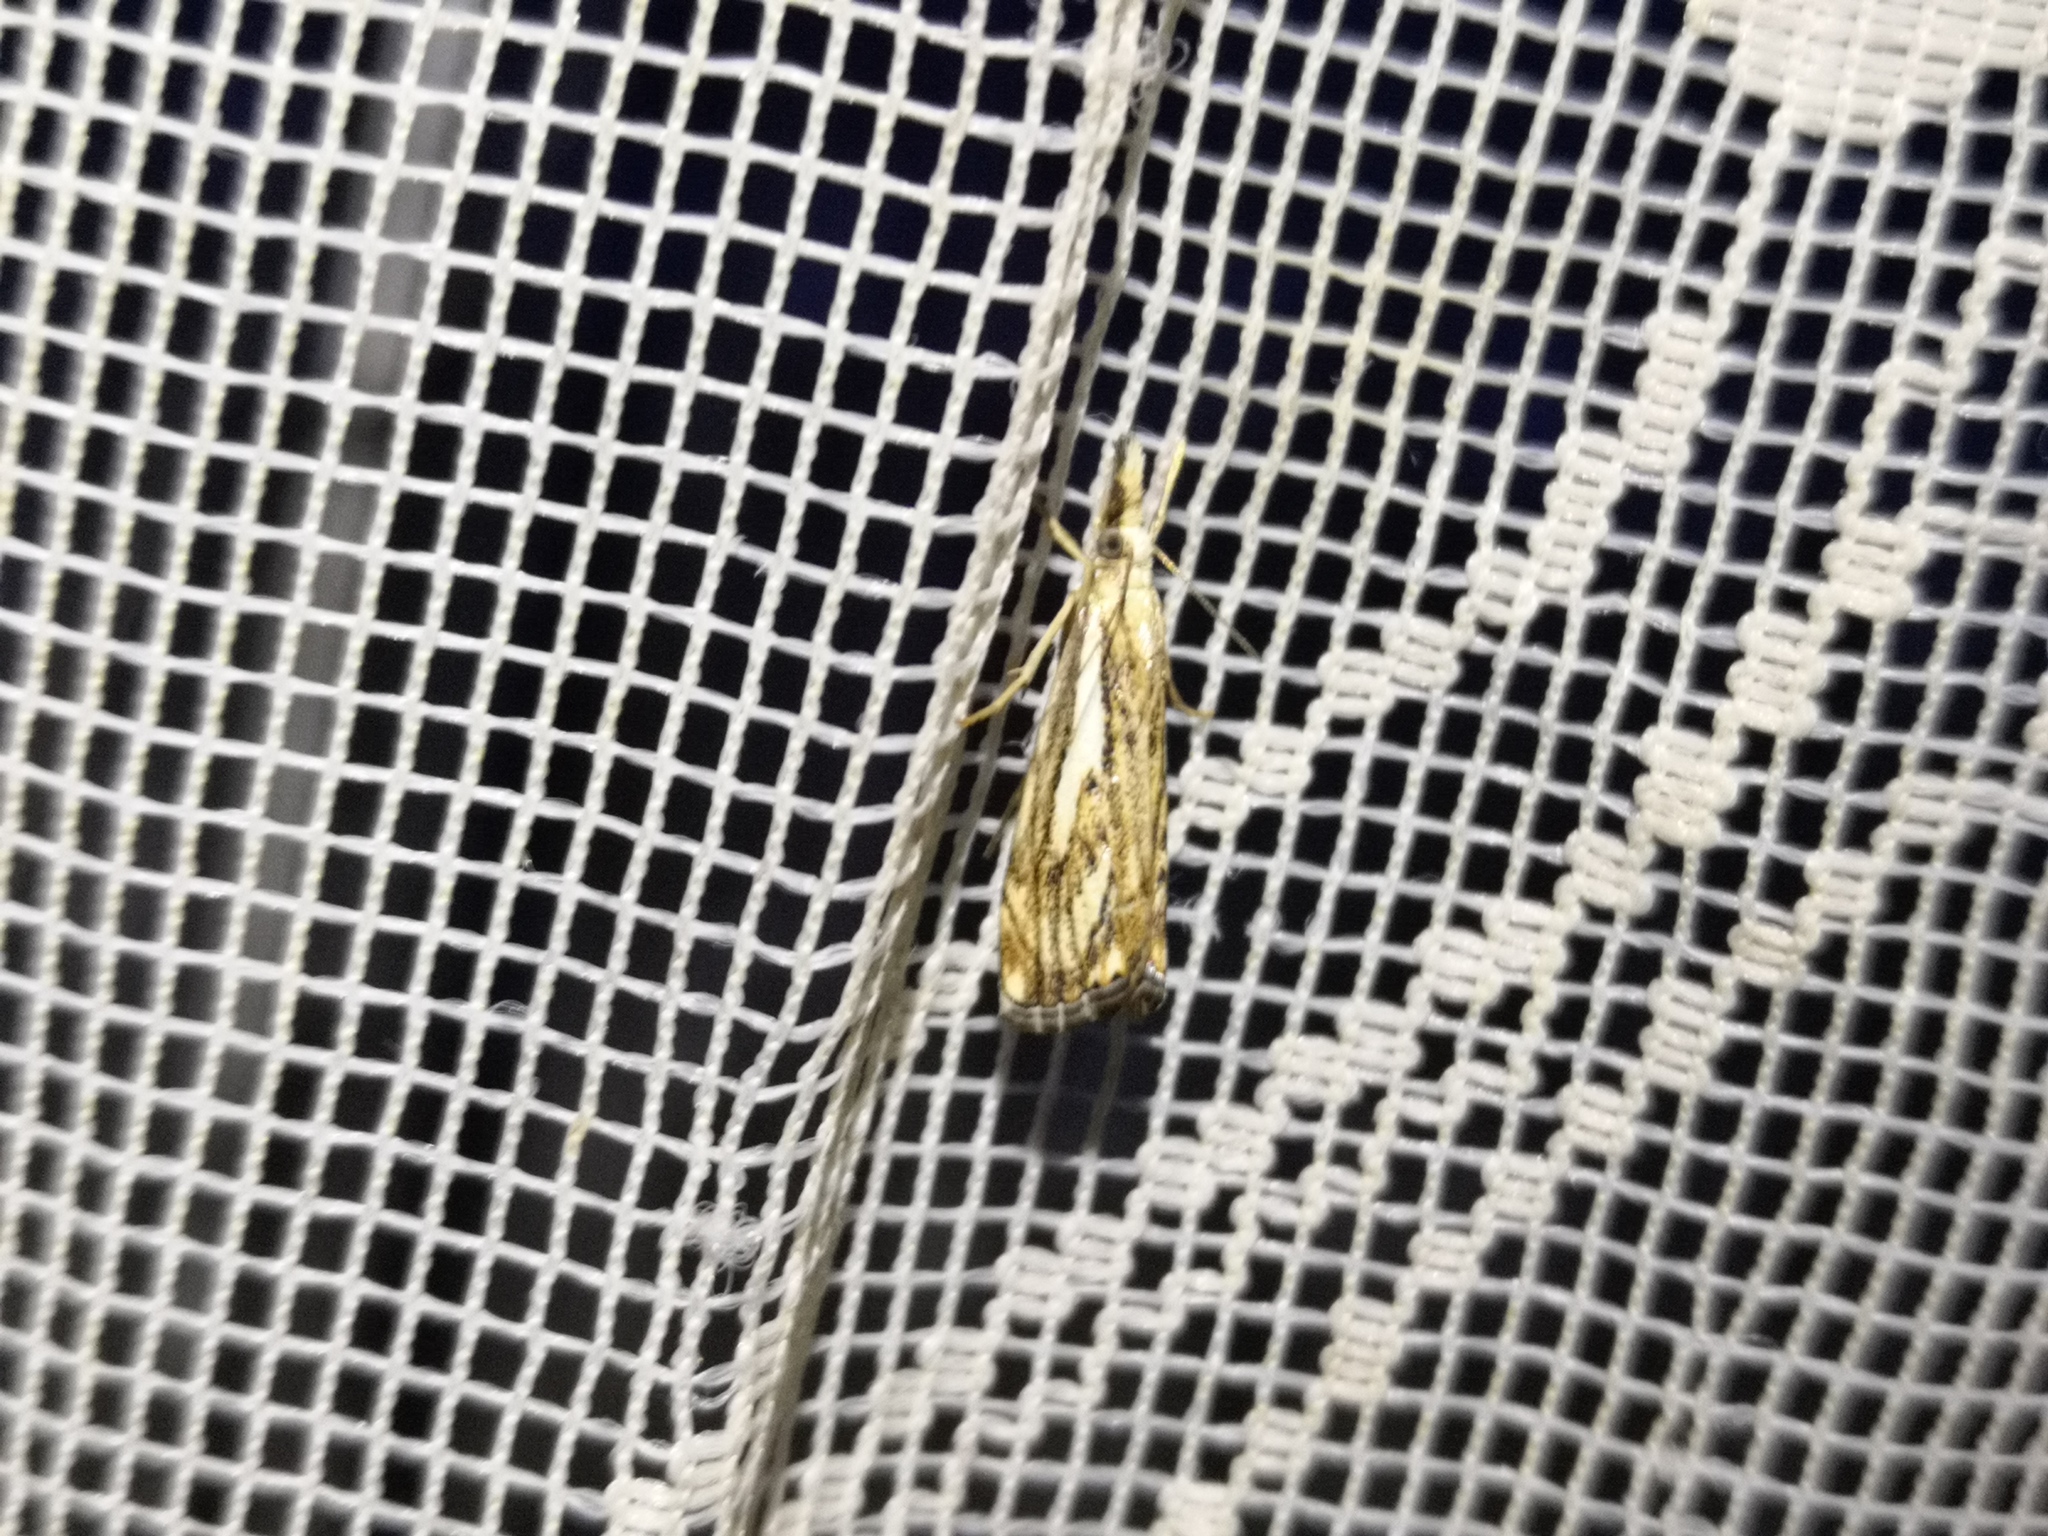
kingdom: Animalia
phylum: Arthropoda
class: Insecta
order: Lepidoptera
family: Crambidae
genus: Catoptria
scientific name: Catoptria falsella
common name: Chequered grass-veneer
